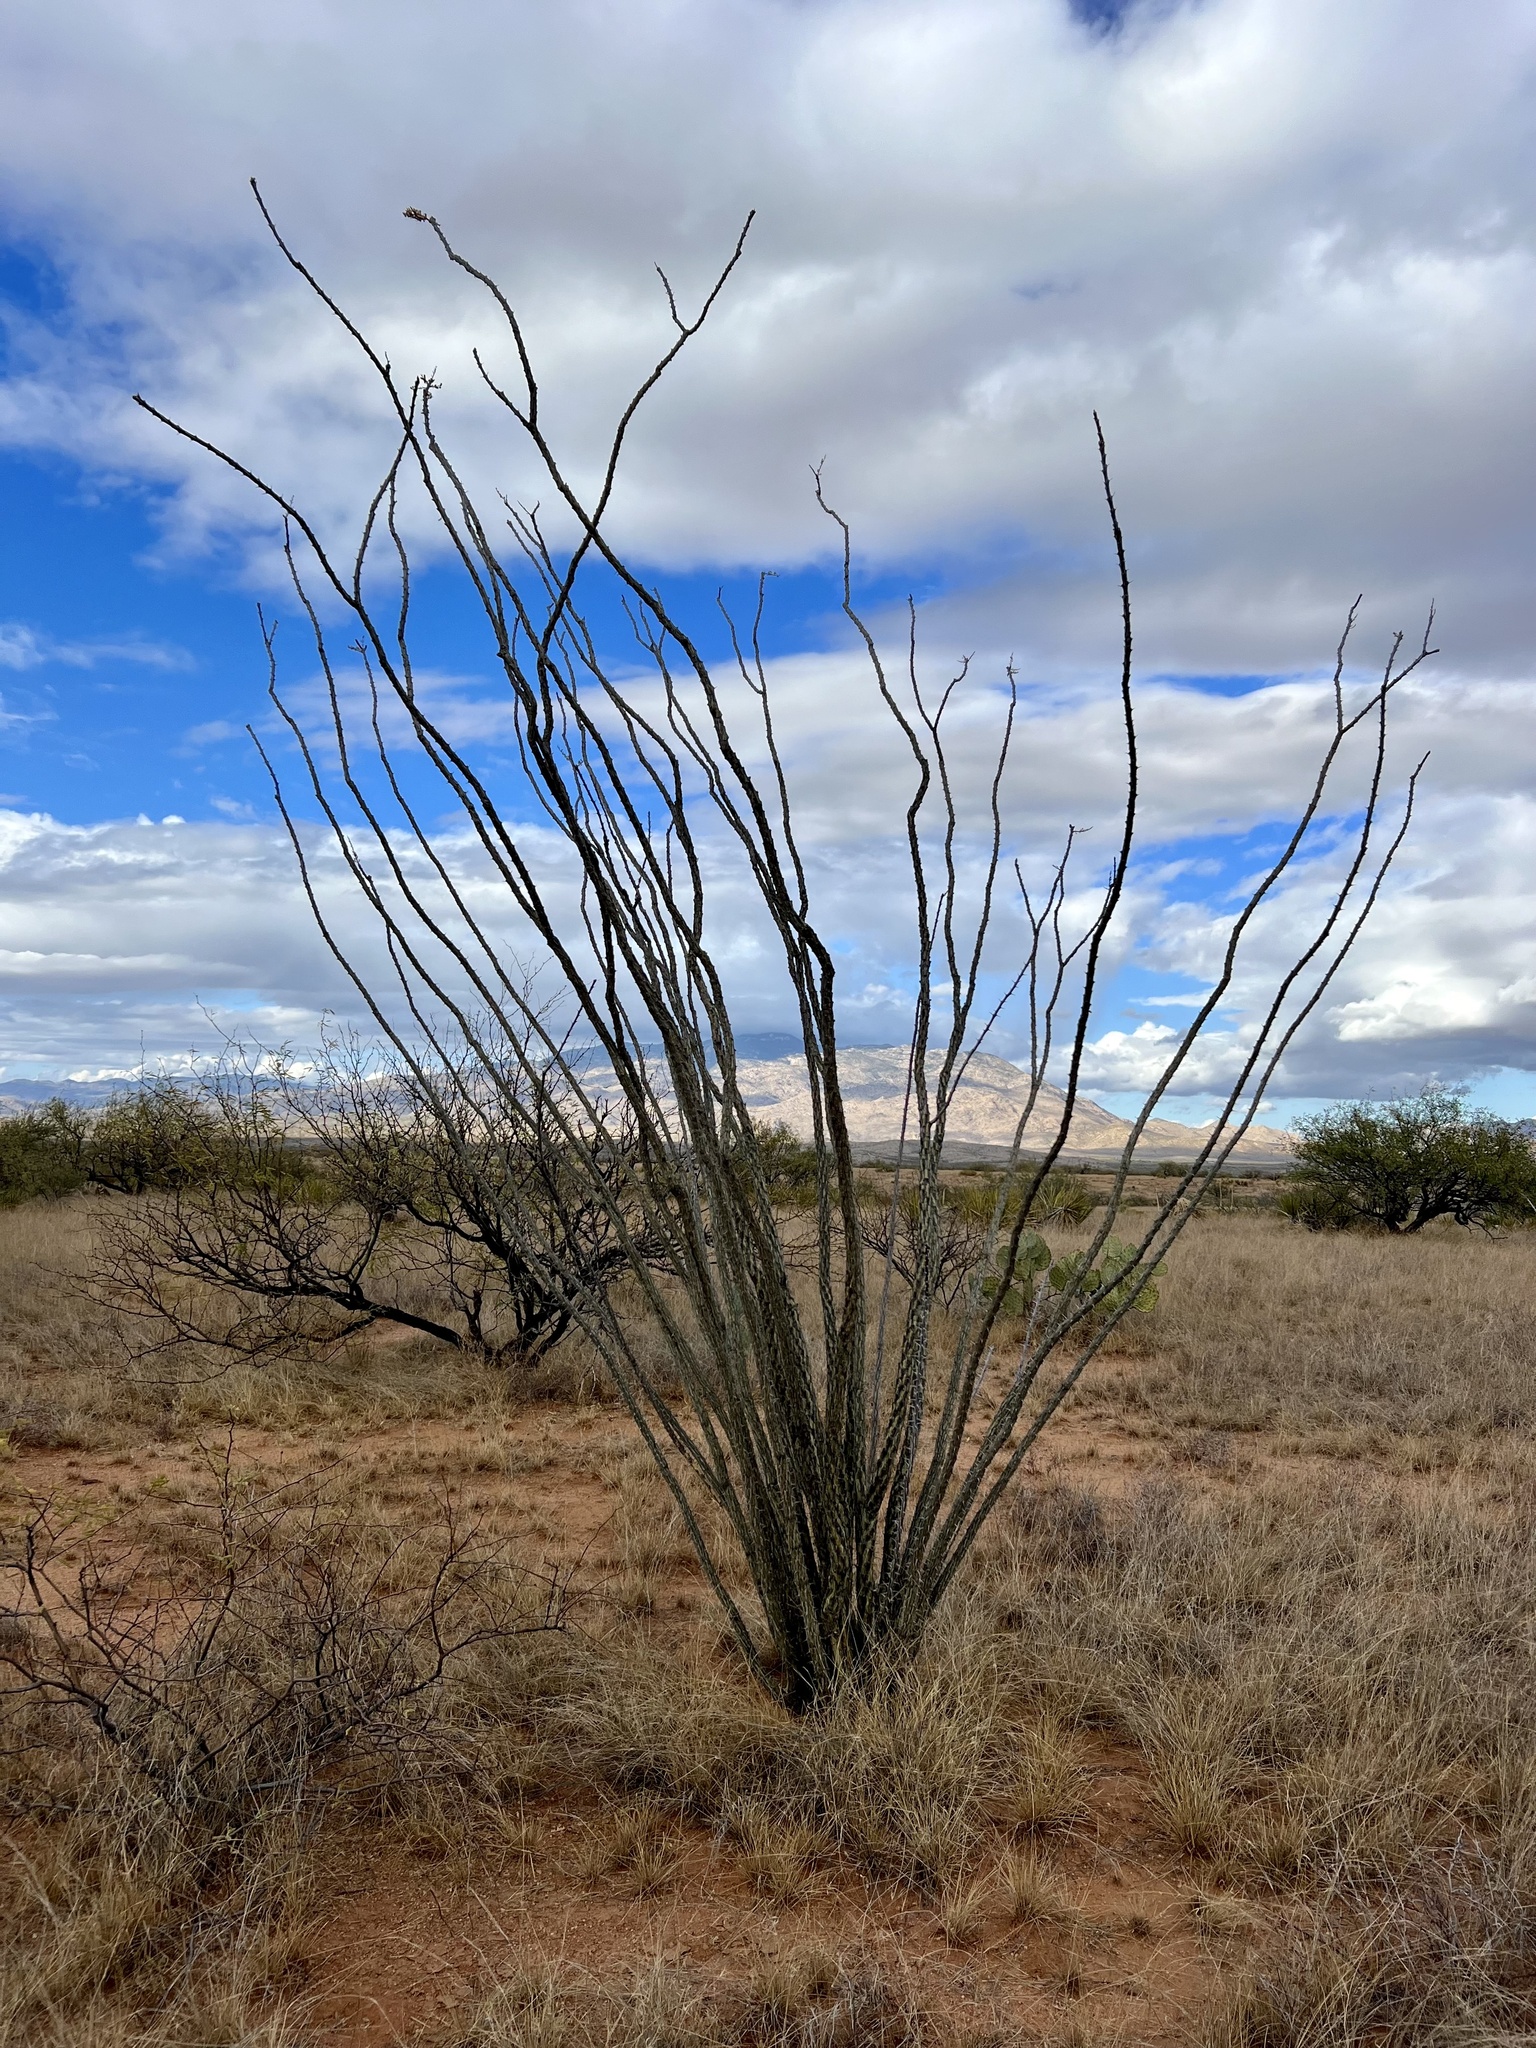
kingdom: Plantae
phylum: Tracheophyta
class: Magnoliopsida
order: Ericales
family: Fouquieriaceae
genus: Fouquieria
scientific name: Fouquieria splendens
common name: Vine-cactus
